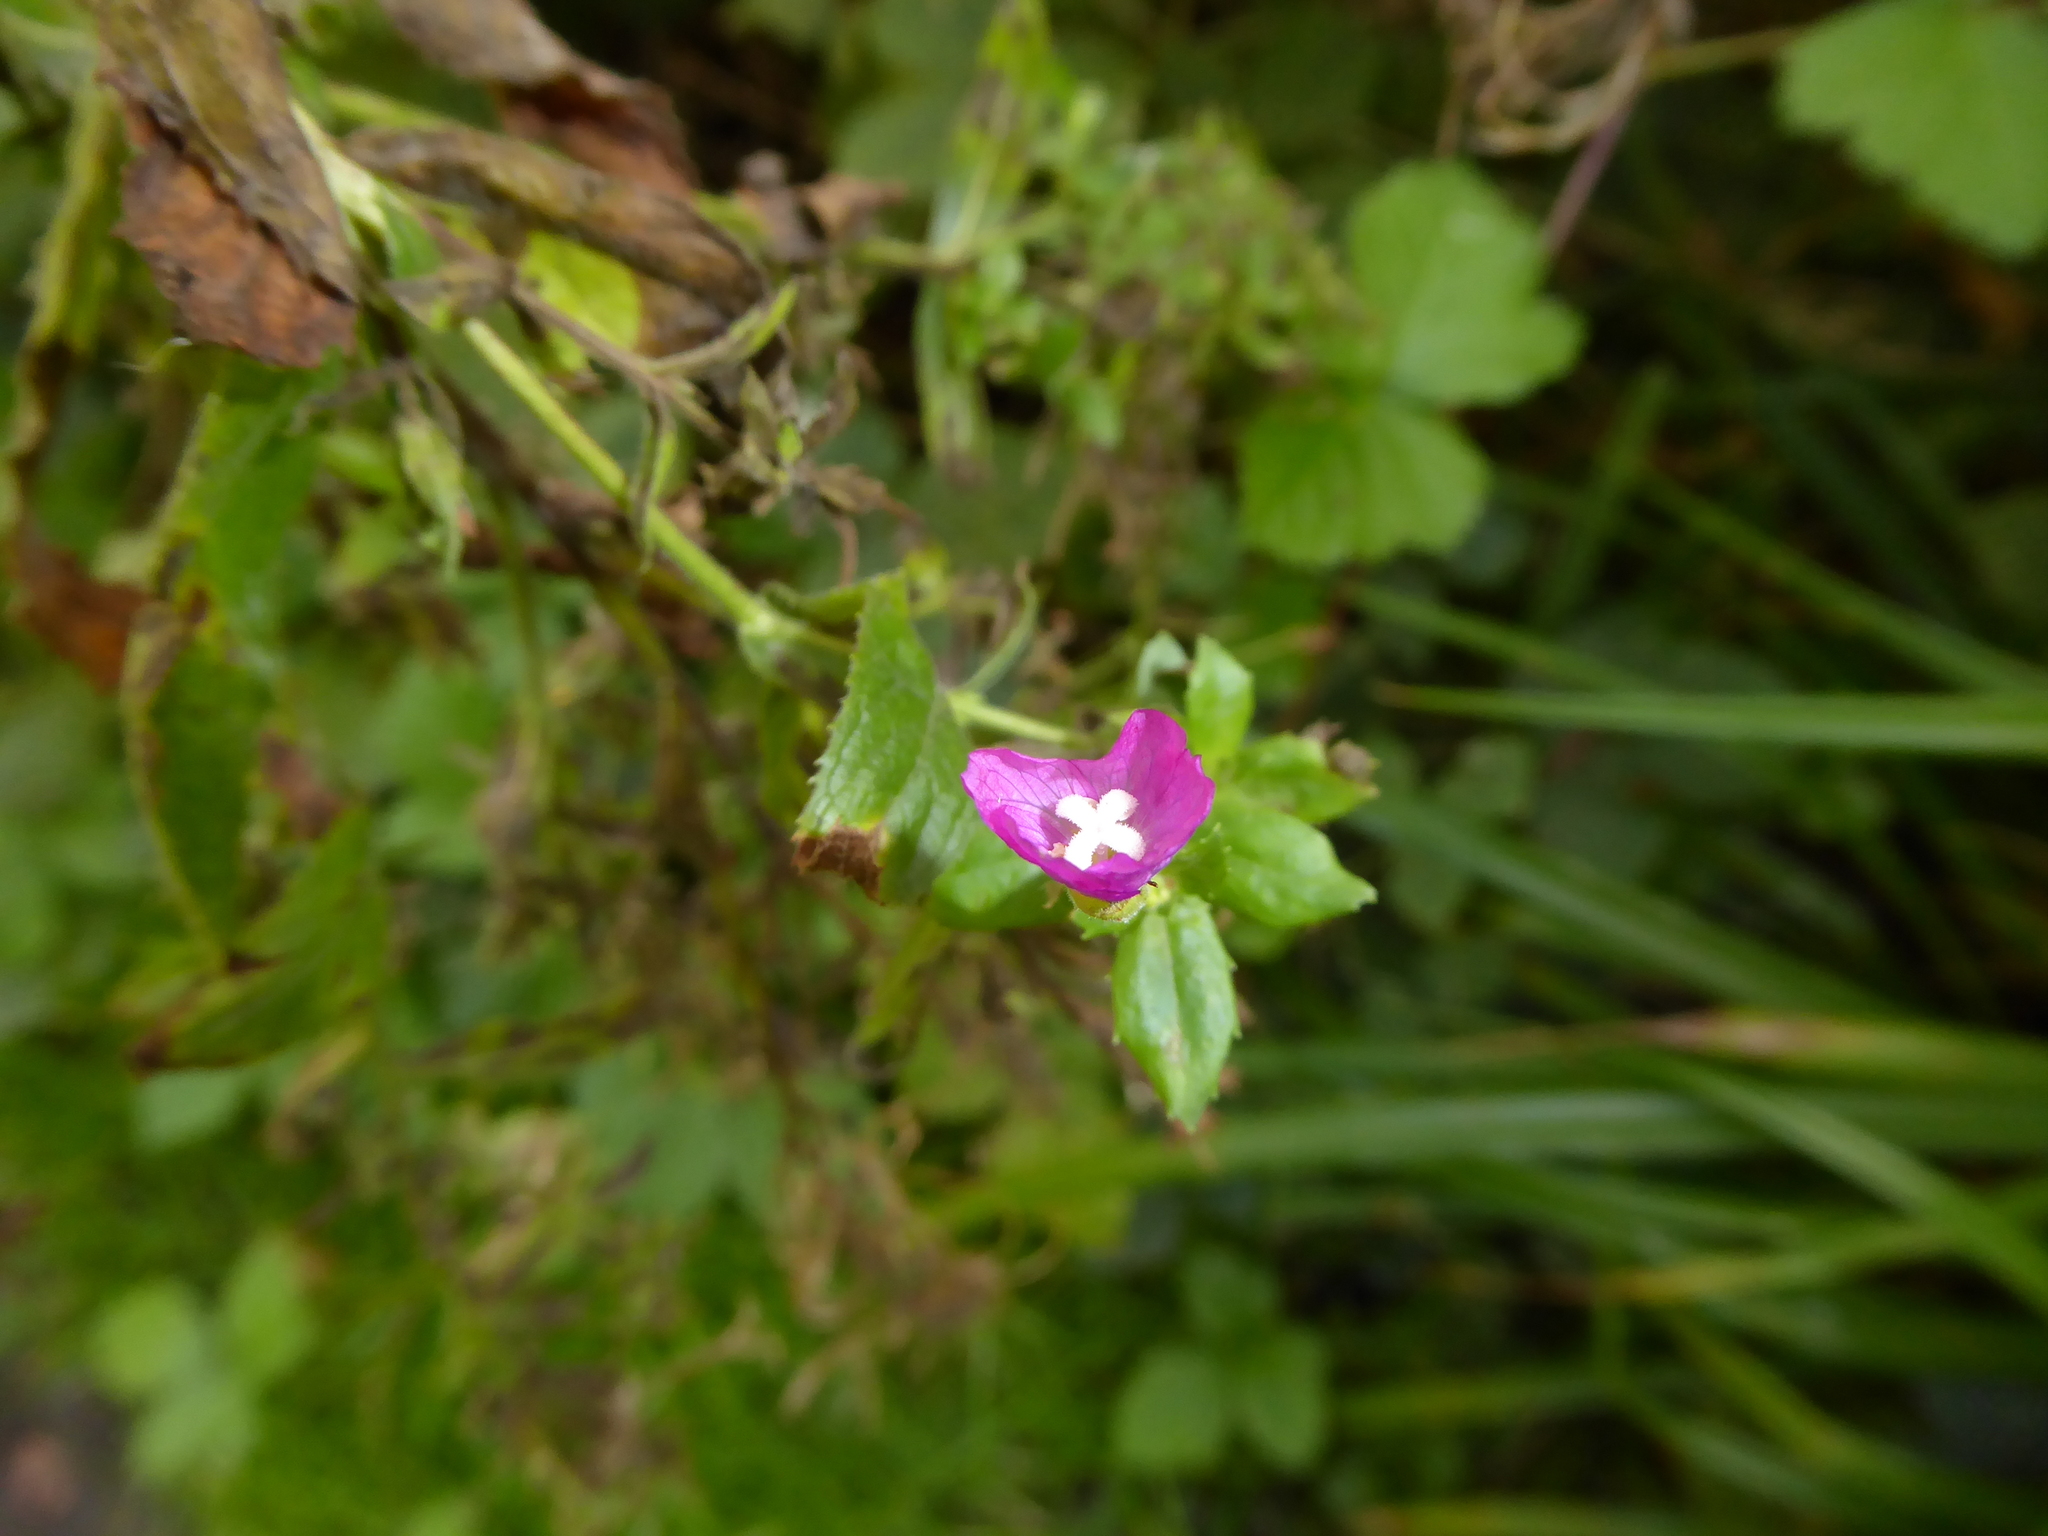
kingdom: Plantae
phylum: Tracheophyta
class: Magnoliopsida
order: Myrtales
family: Onagraceae
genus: Epilobium
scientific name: Epilobium hirsutum
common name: Great willowherb
